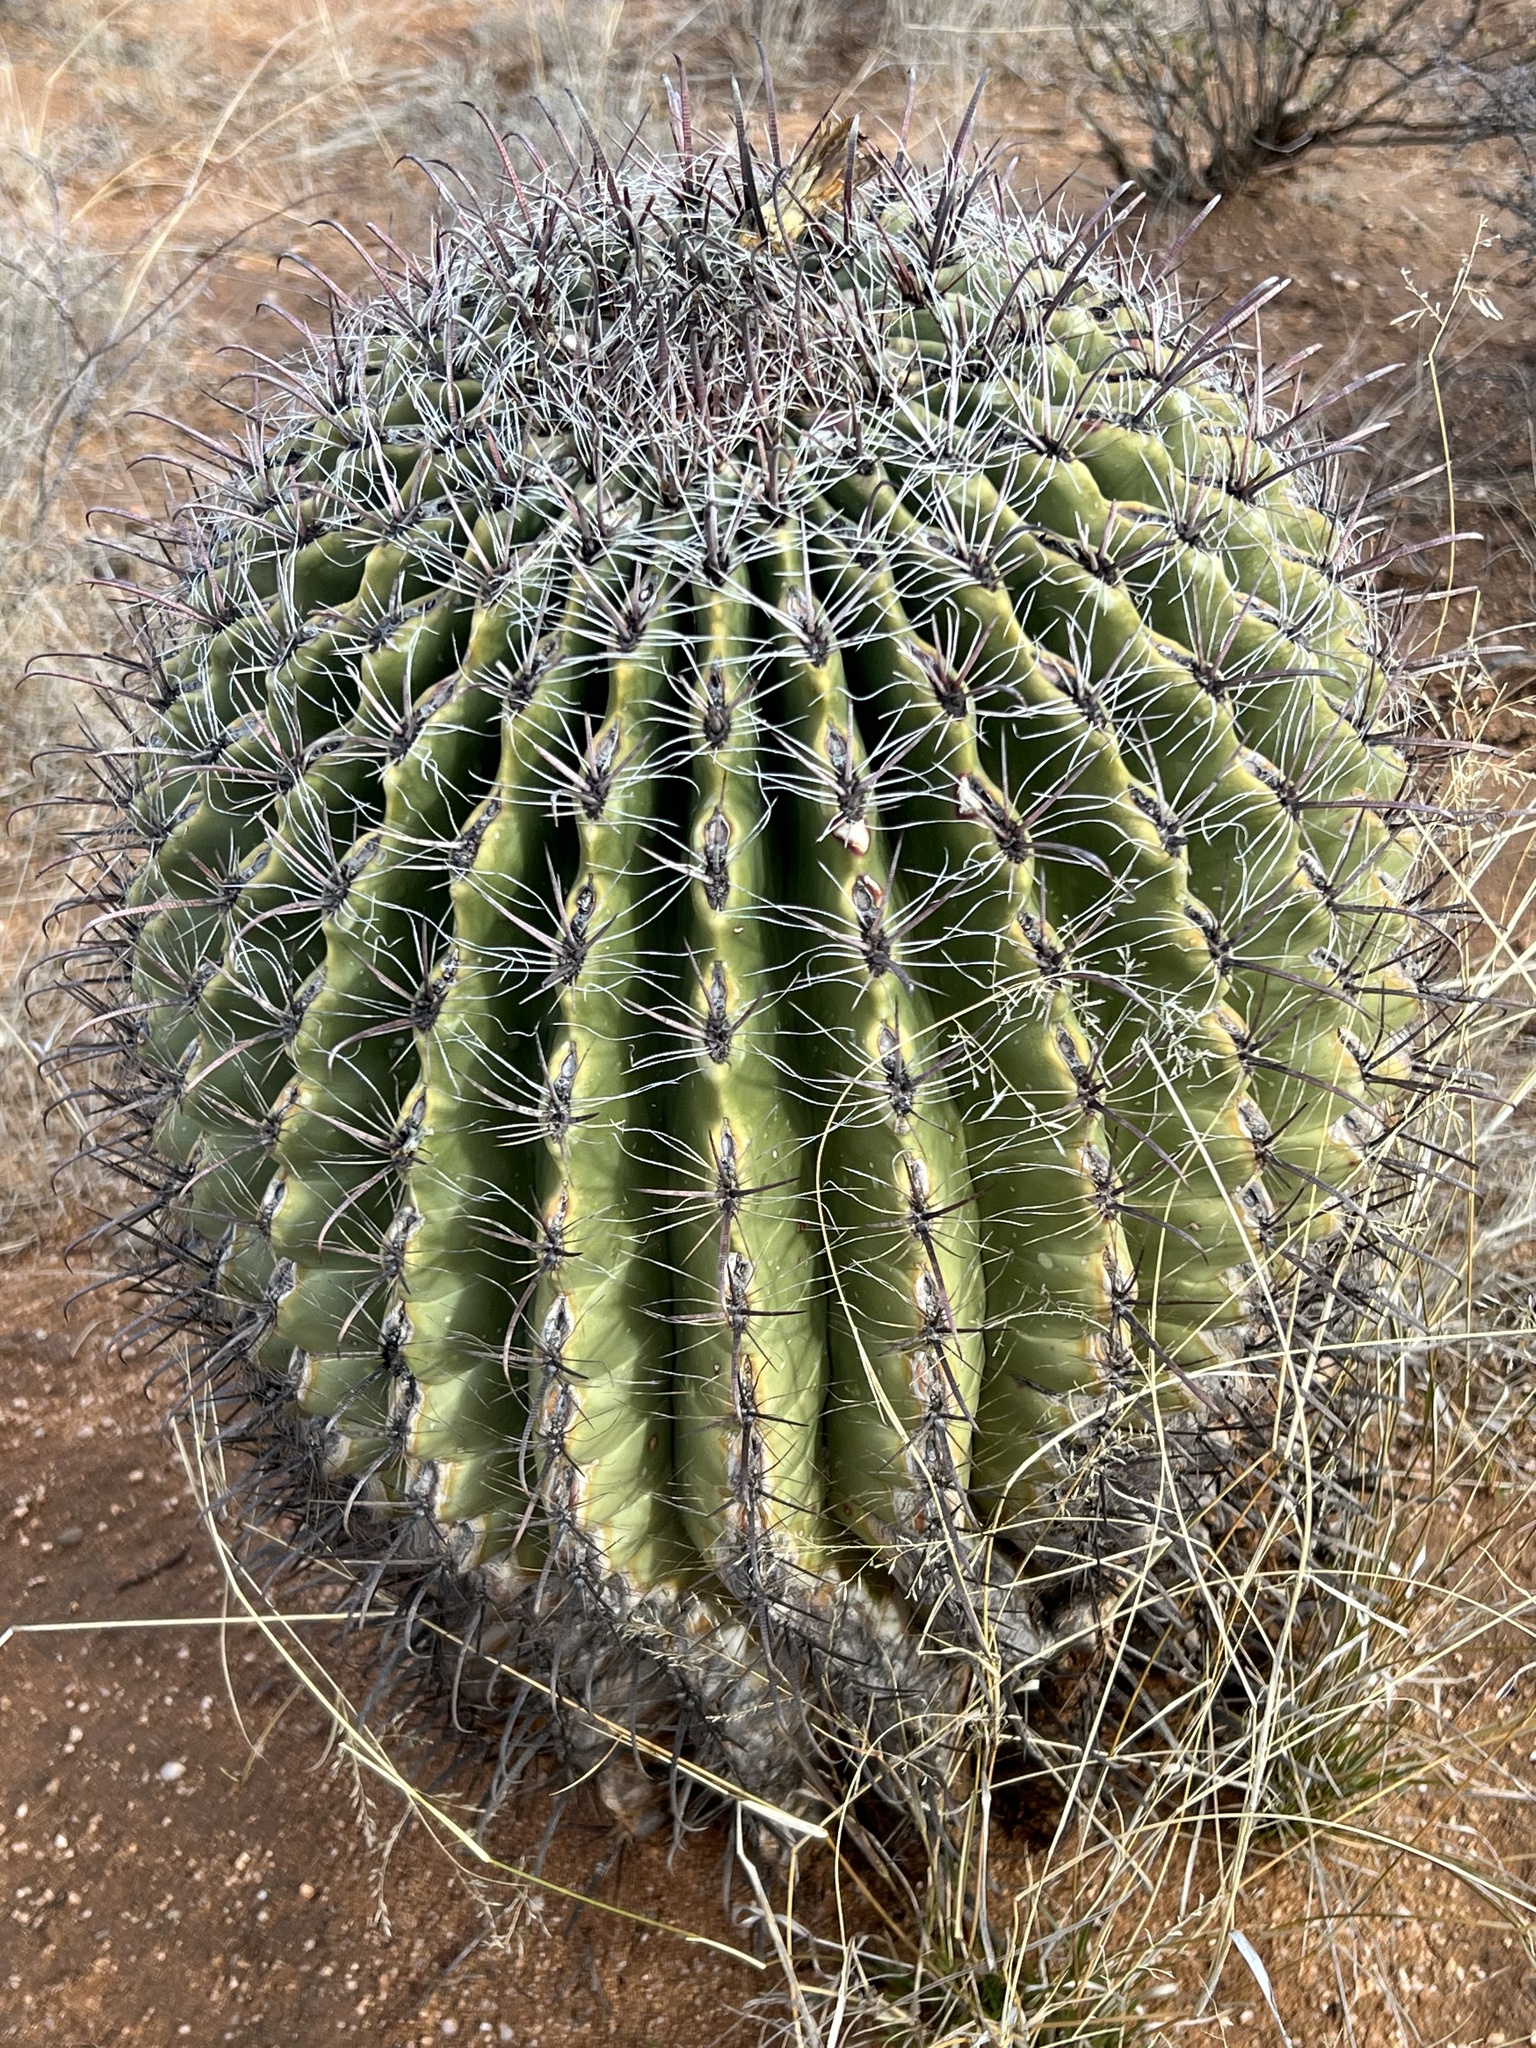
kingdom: Plantae
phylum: Tracheophyta
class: Magnoliopsida
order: Caryophyllales
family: Cactaceae
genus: Ferocactus
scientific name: Ferocactus wislizeni
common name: Candy barrel cactus
